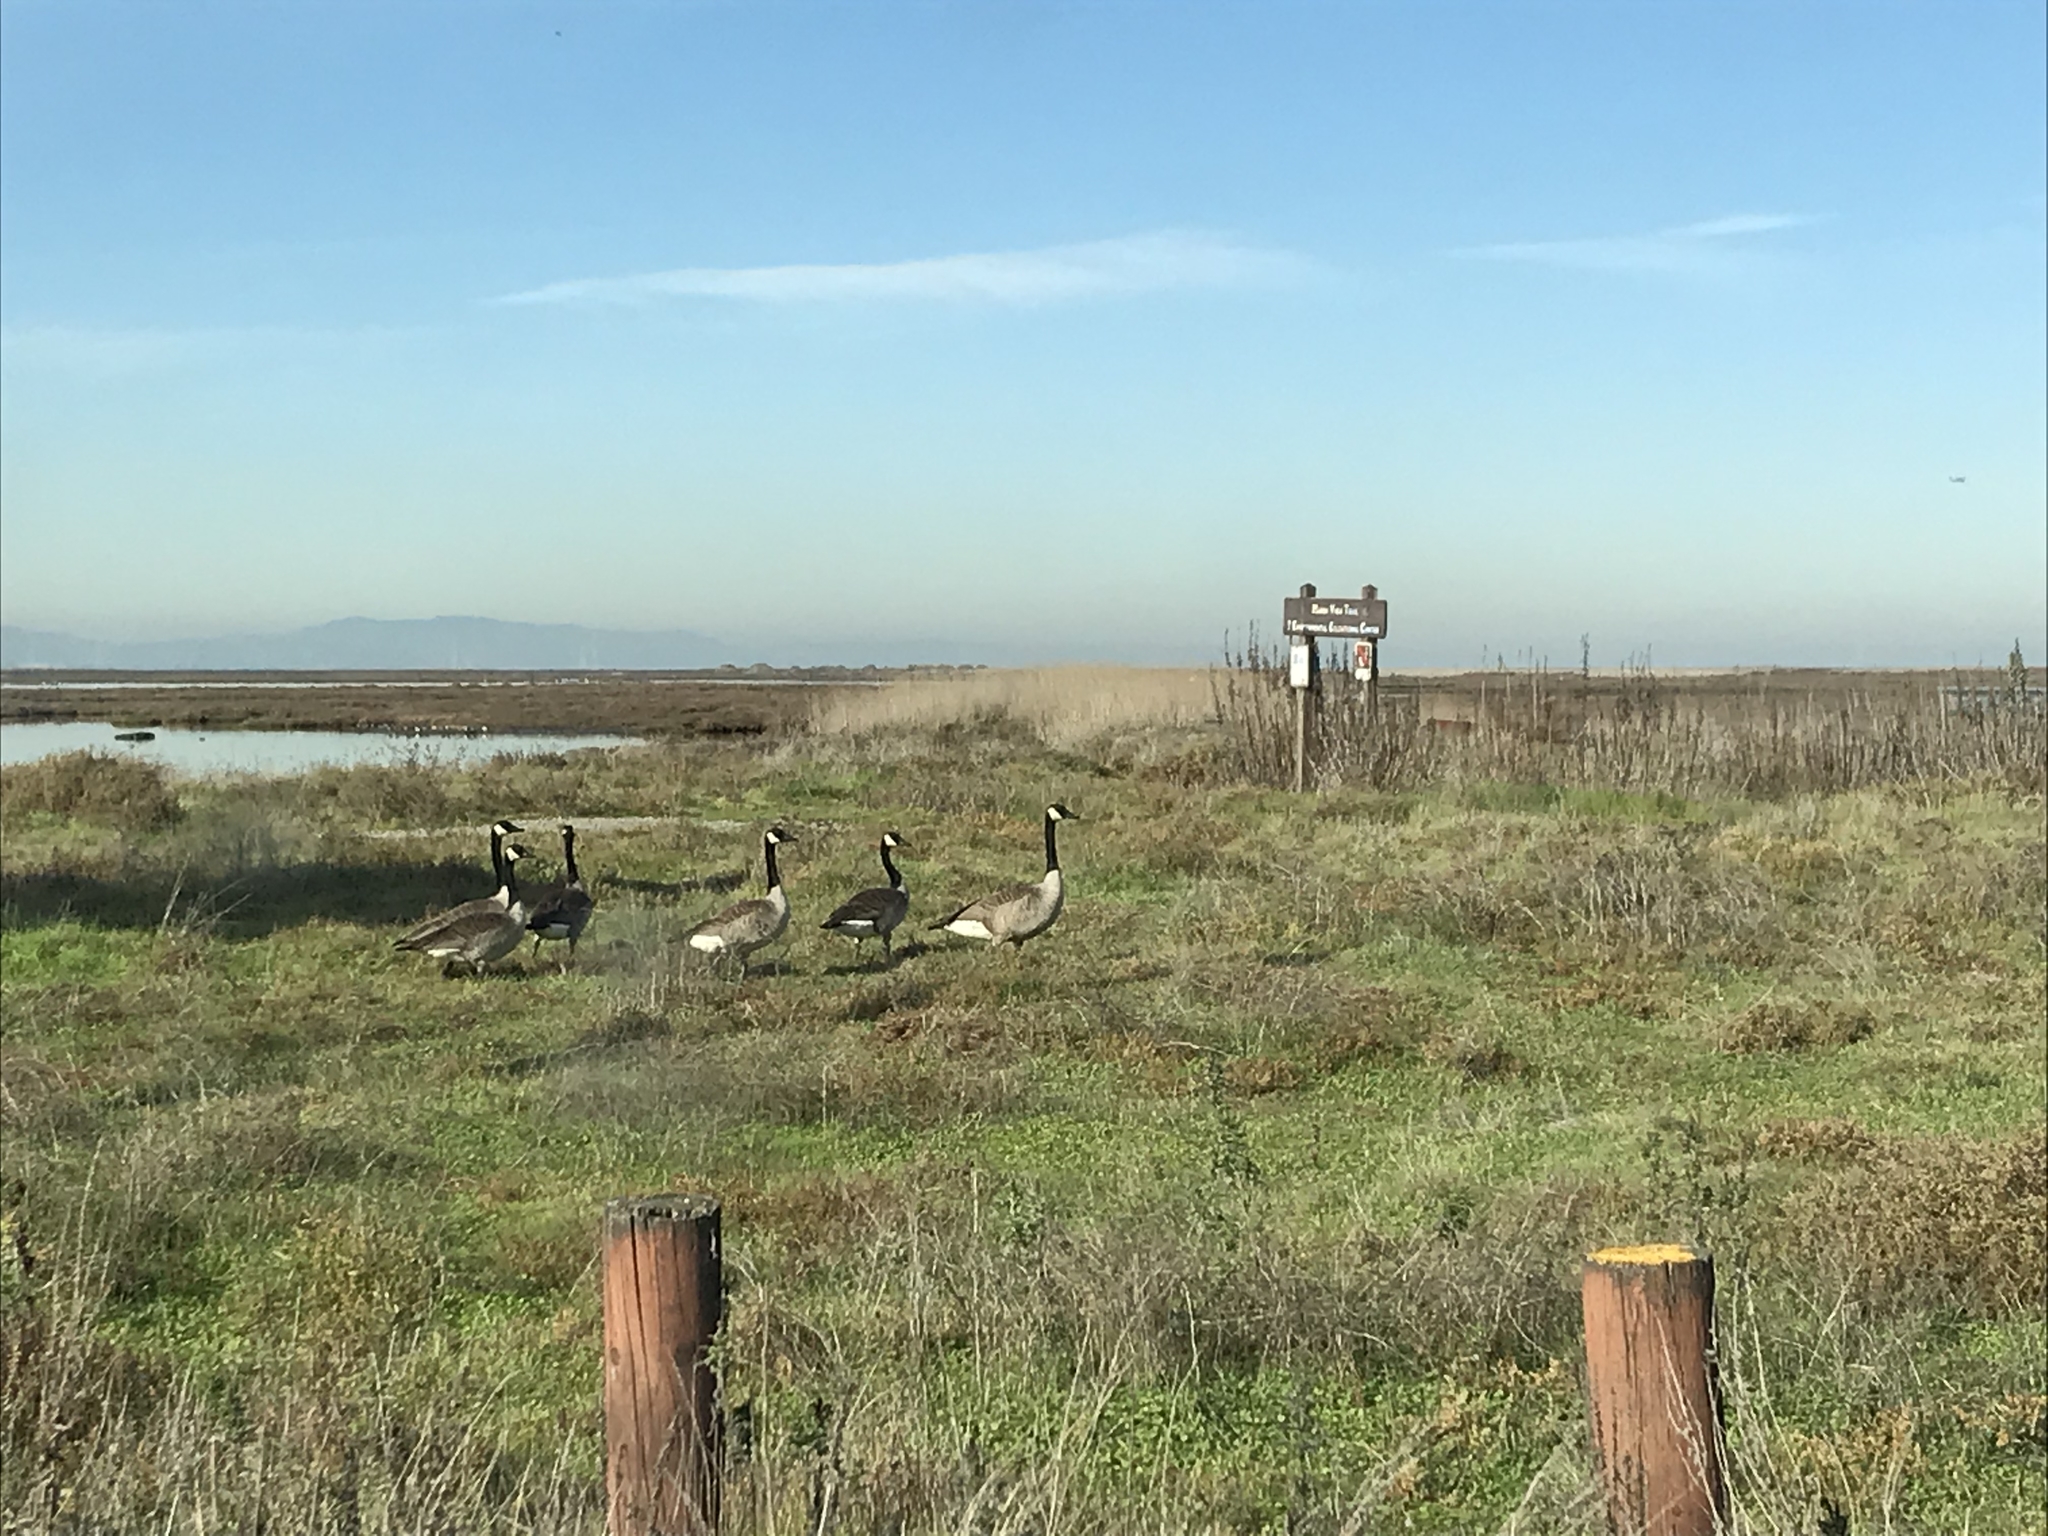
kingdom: Animalia
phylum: Chordata
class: Aves
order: Anseriformes
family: Anatidae
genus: Branta
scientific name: Branta canadensis
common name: Canada goose
